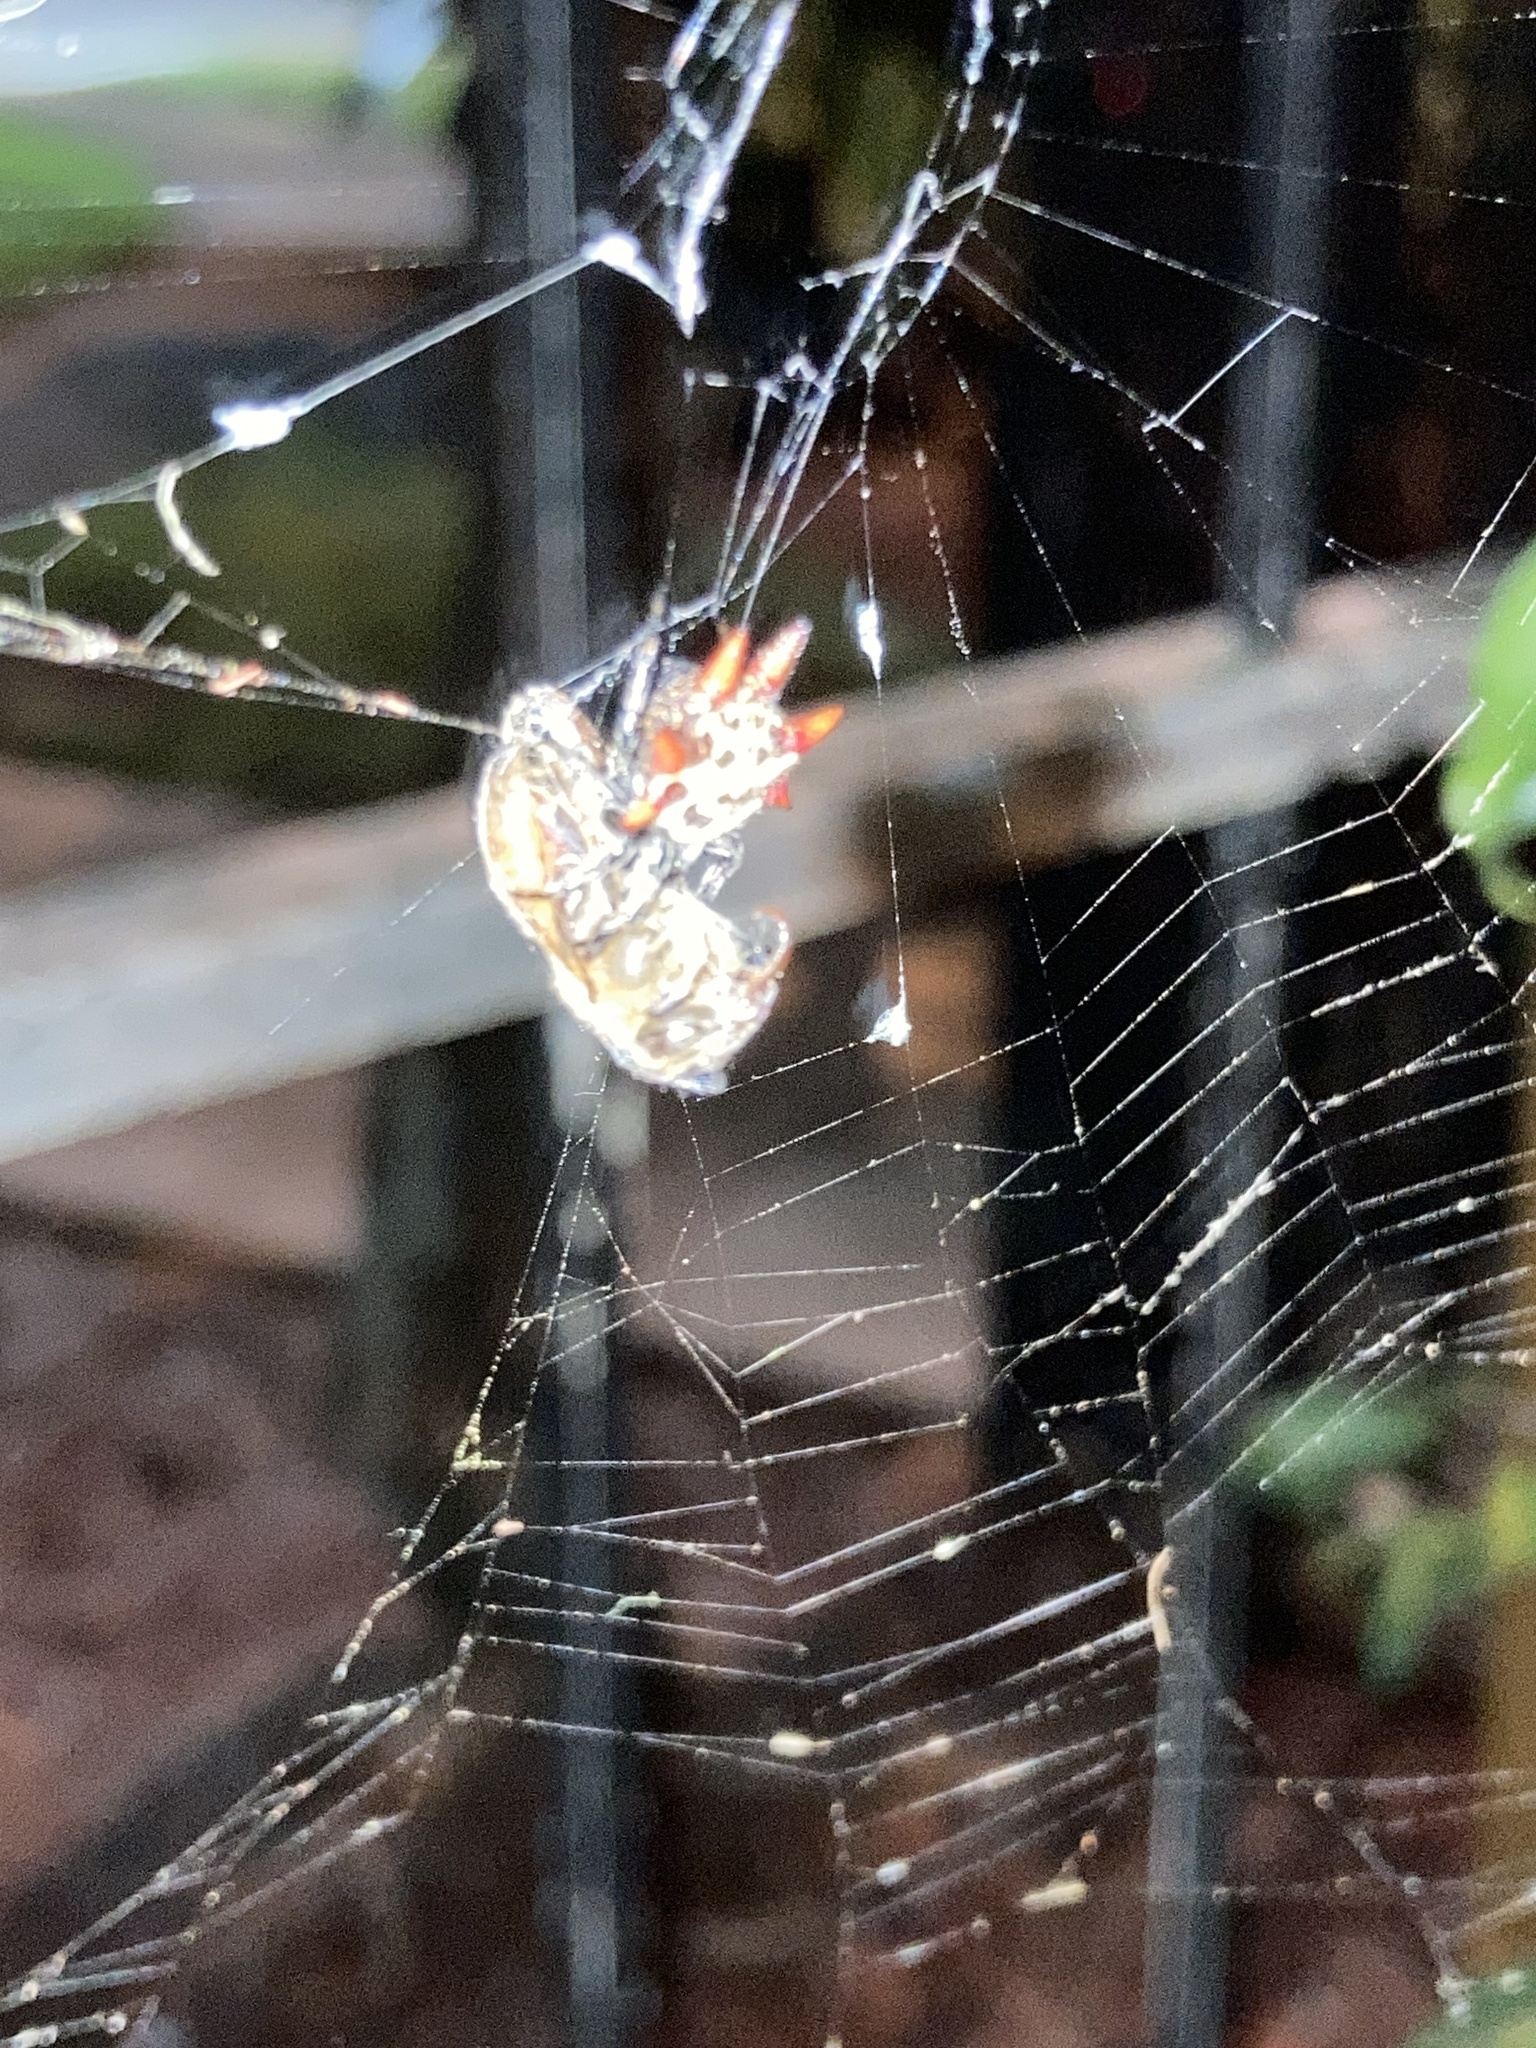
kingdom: Animalia
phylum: Arthropoda
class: Insecta
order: Hymenoptera
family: Apidae
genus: Apis
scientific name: Apis mellifera
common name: Honey bee
